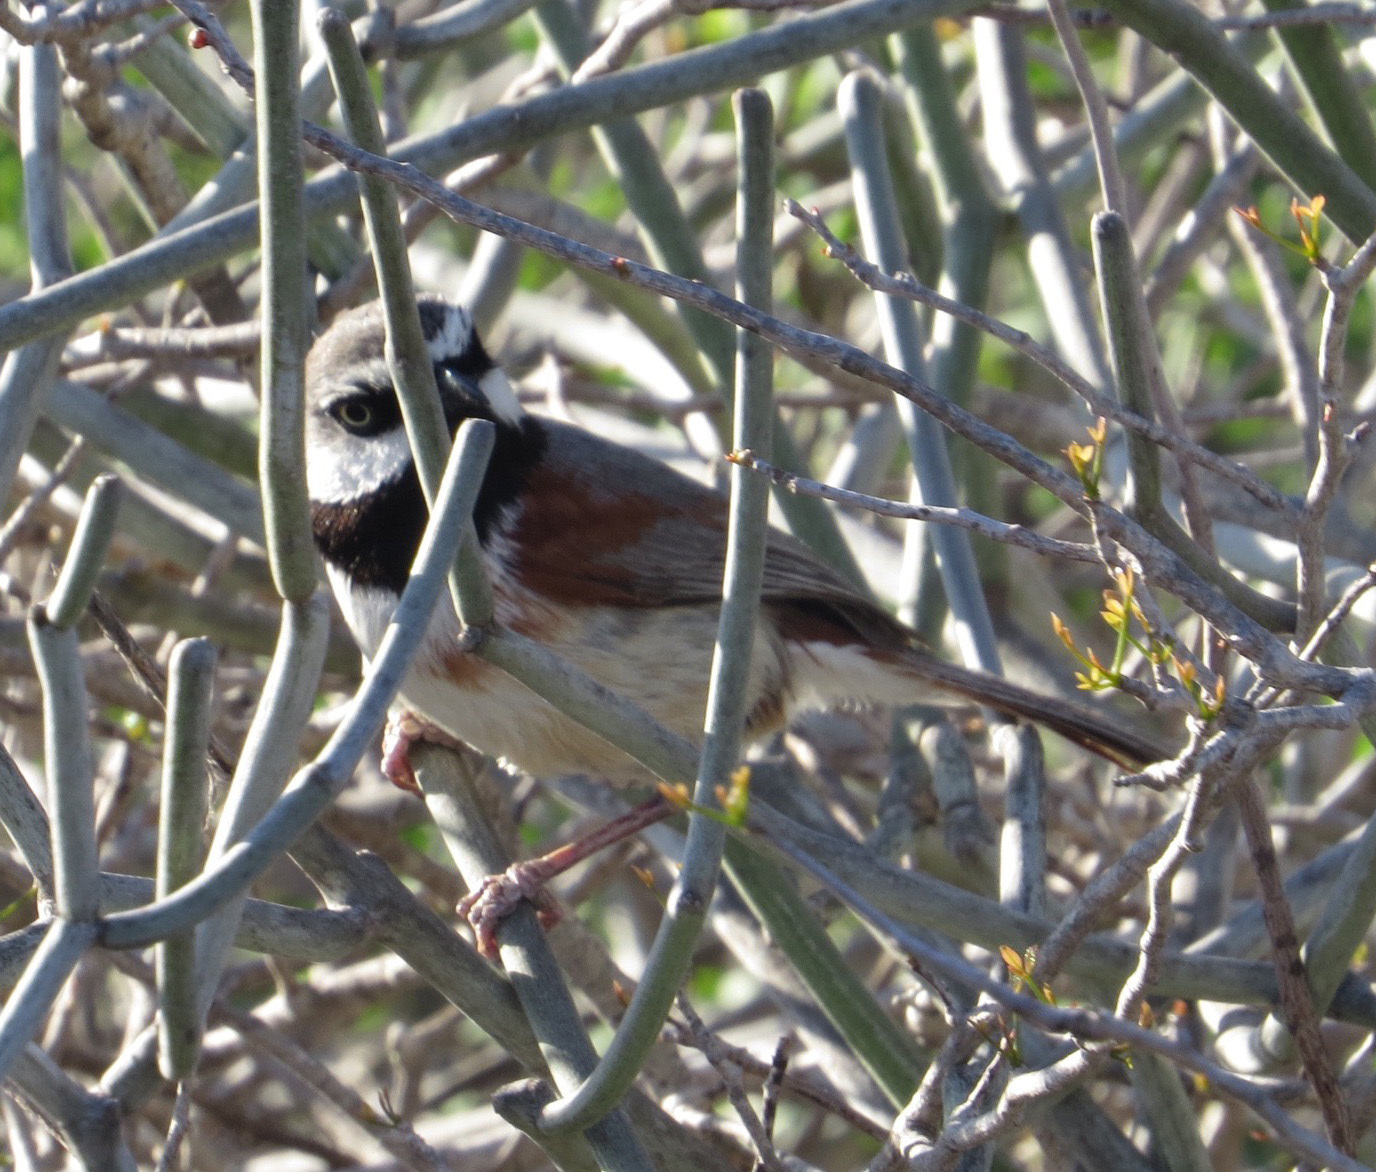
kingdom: Animalia
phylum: Chordata
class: Aves
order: Passeriformes
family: Vangidae
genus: Calicalicus
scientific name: Calicalicus rufocarpalis
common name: Red-shouldered vanga
